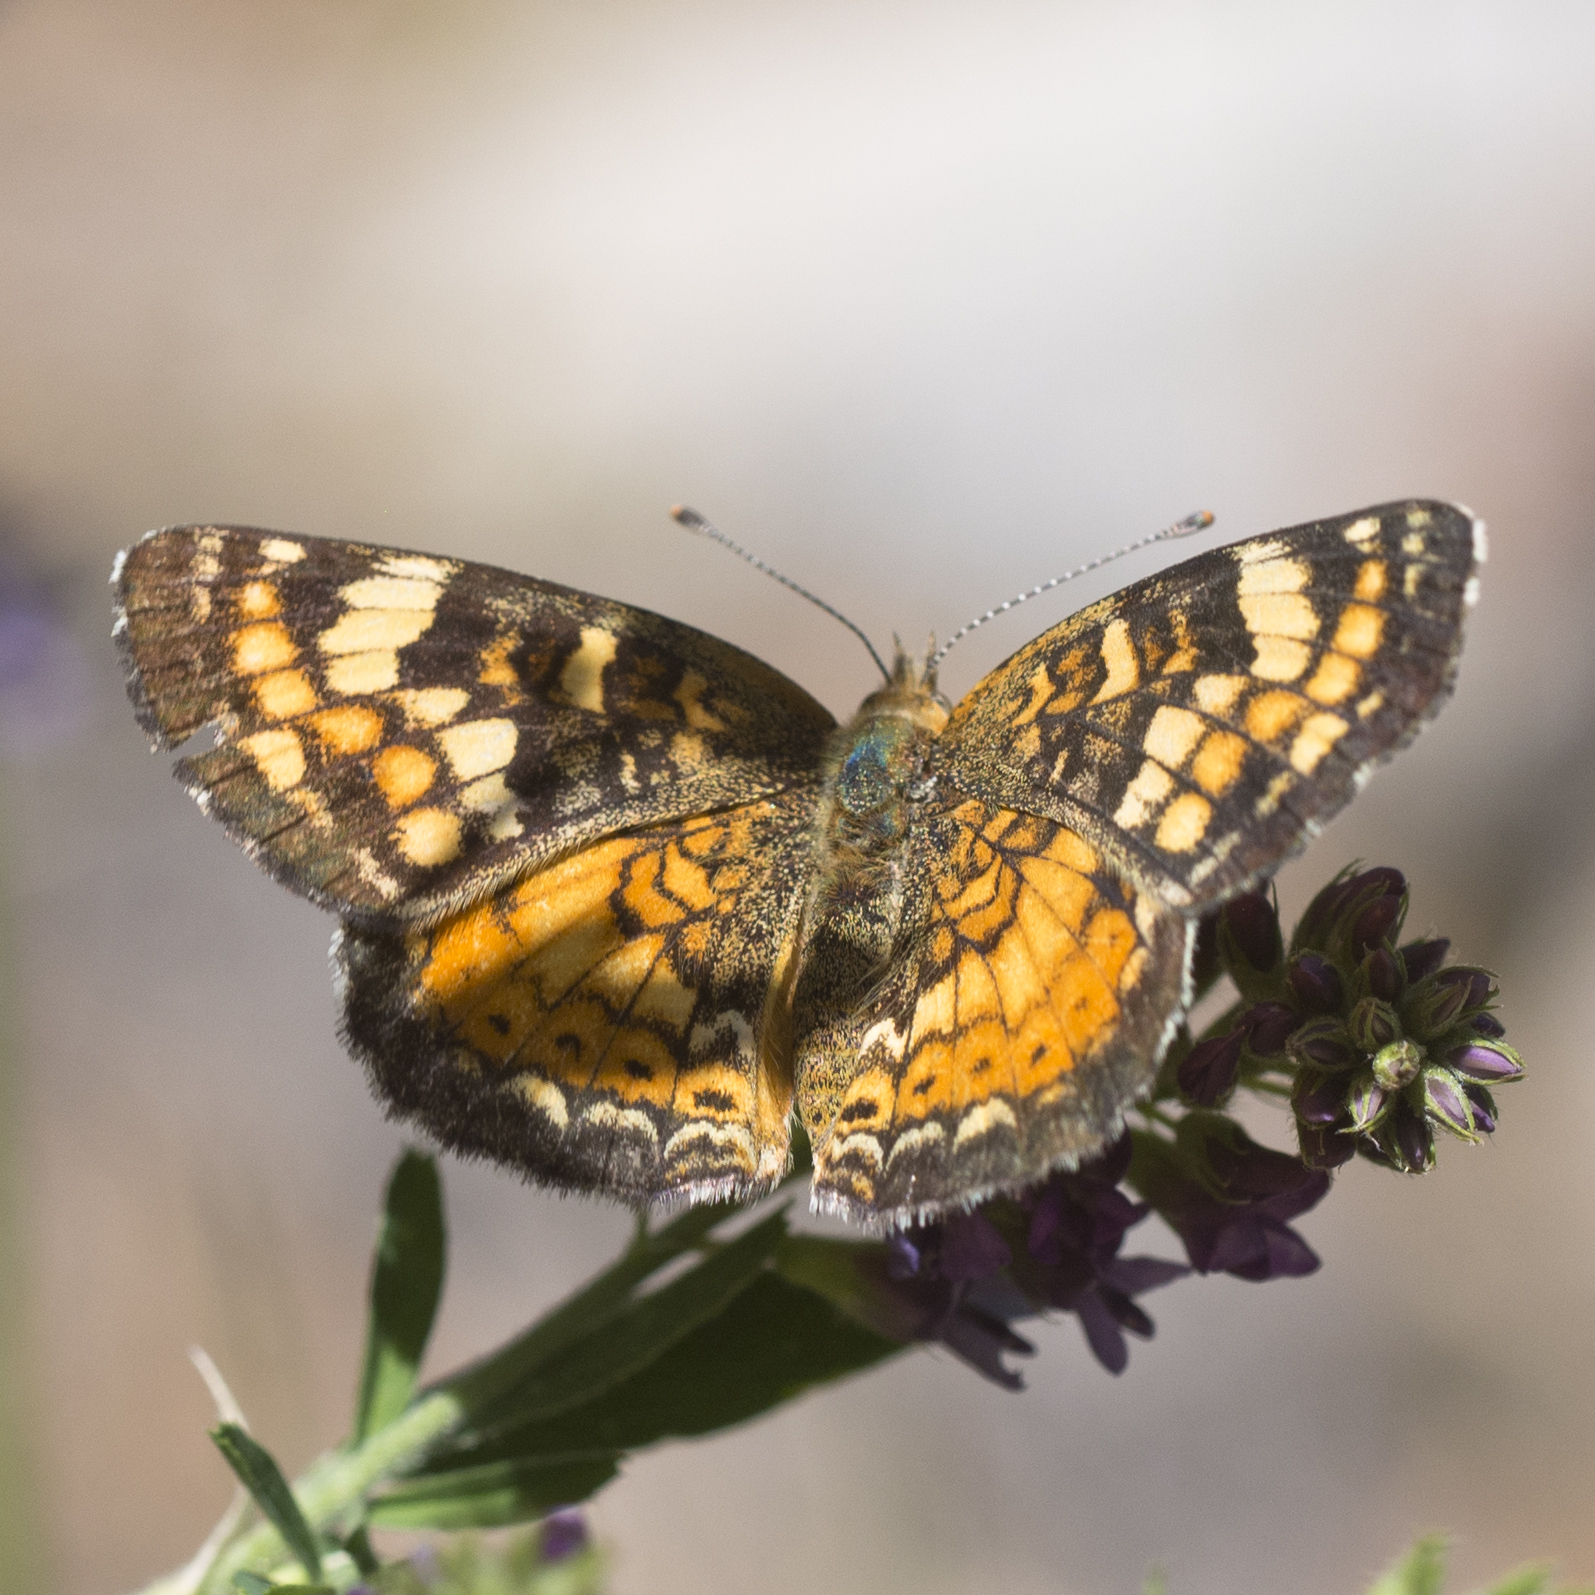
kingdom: Animalia
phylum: Arthropoda
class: Insecta
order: Lepidoptera
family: Nymphalidae
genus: Phyciodes
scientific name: Phyciodes batesii
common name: Tawny crescent
